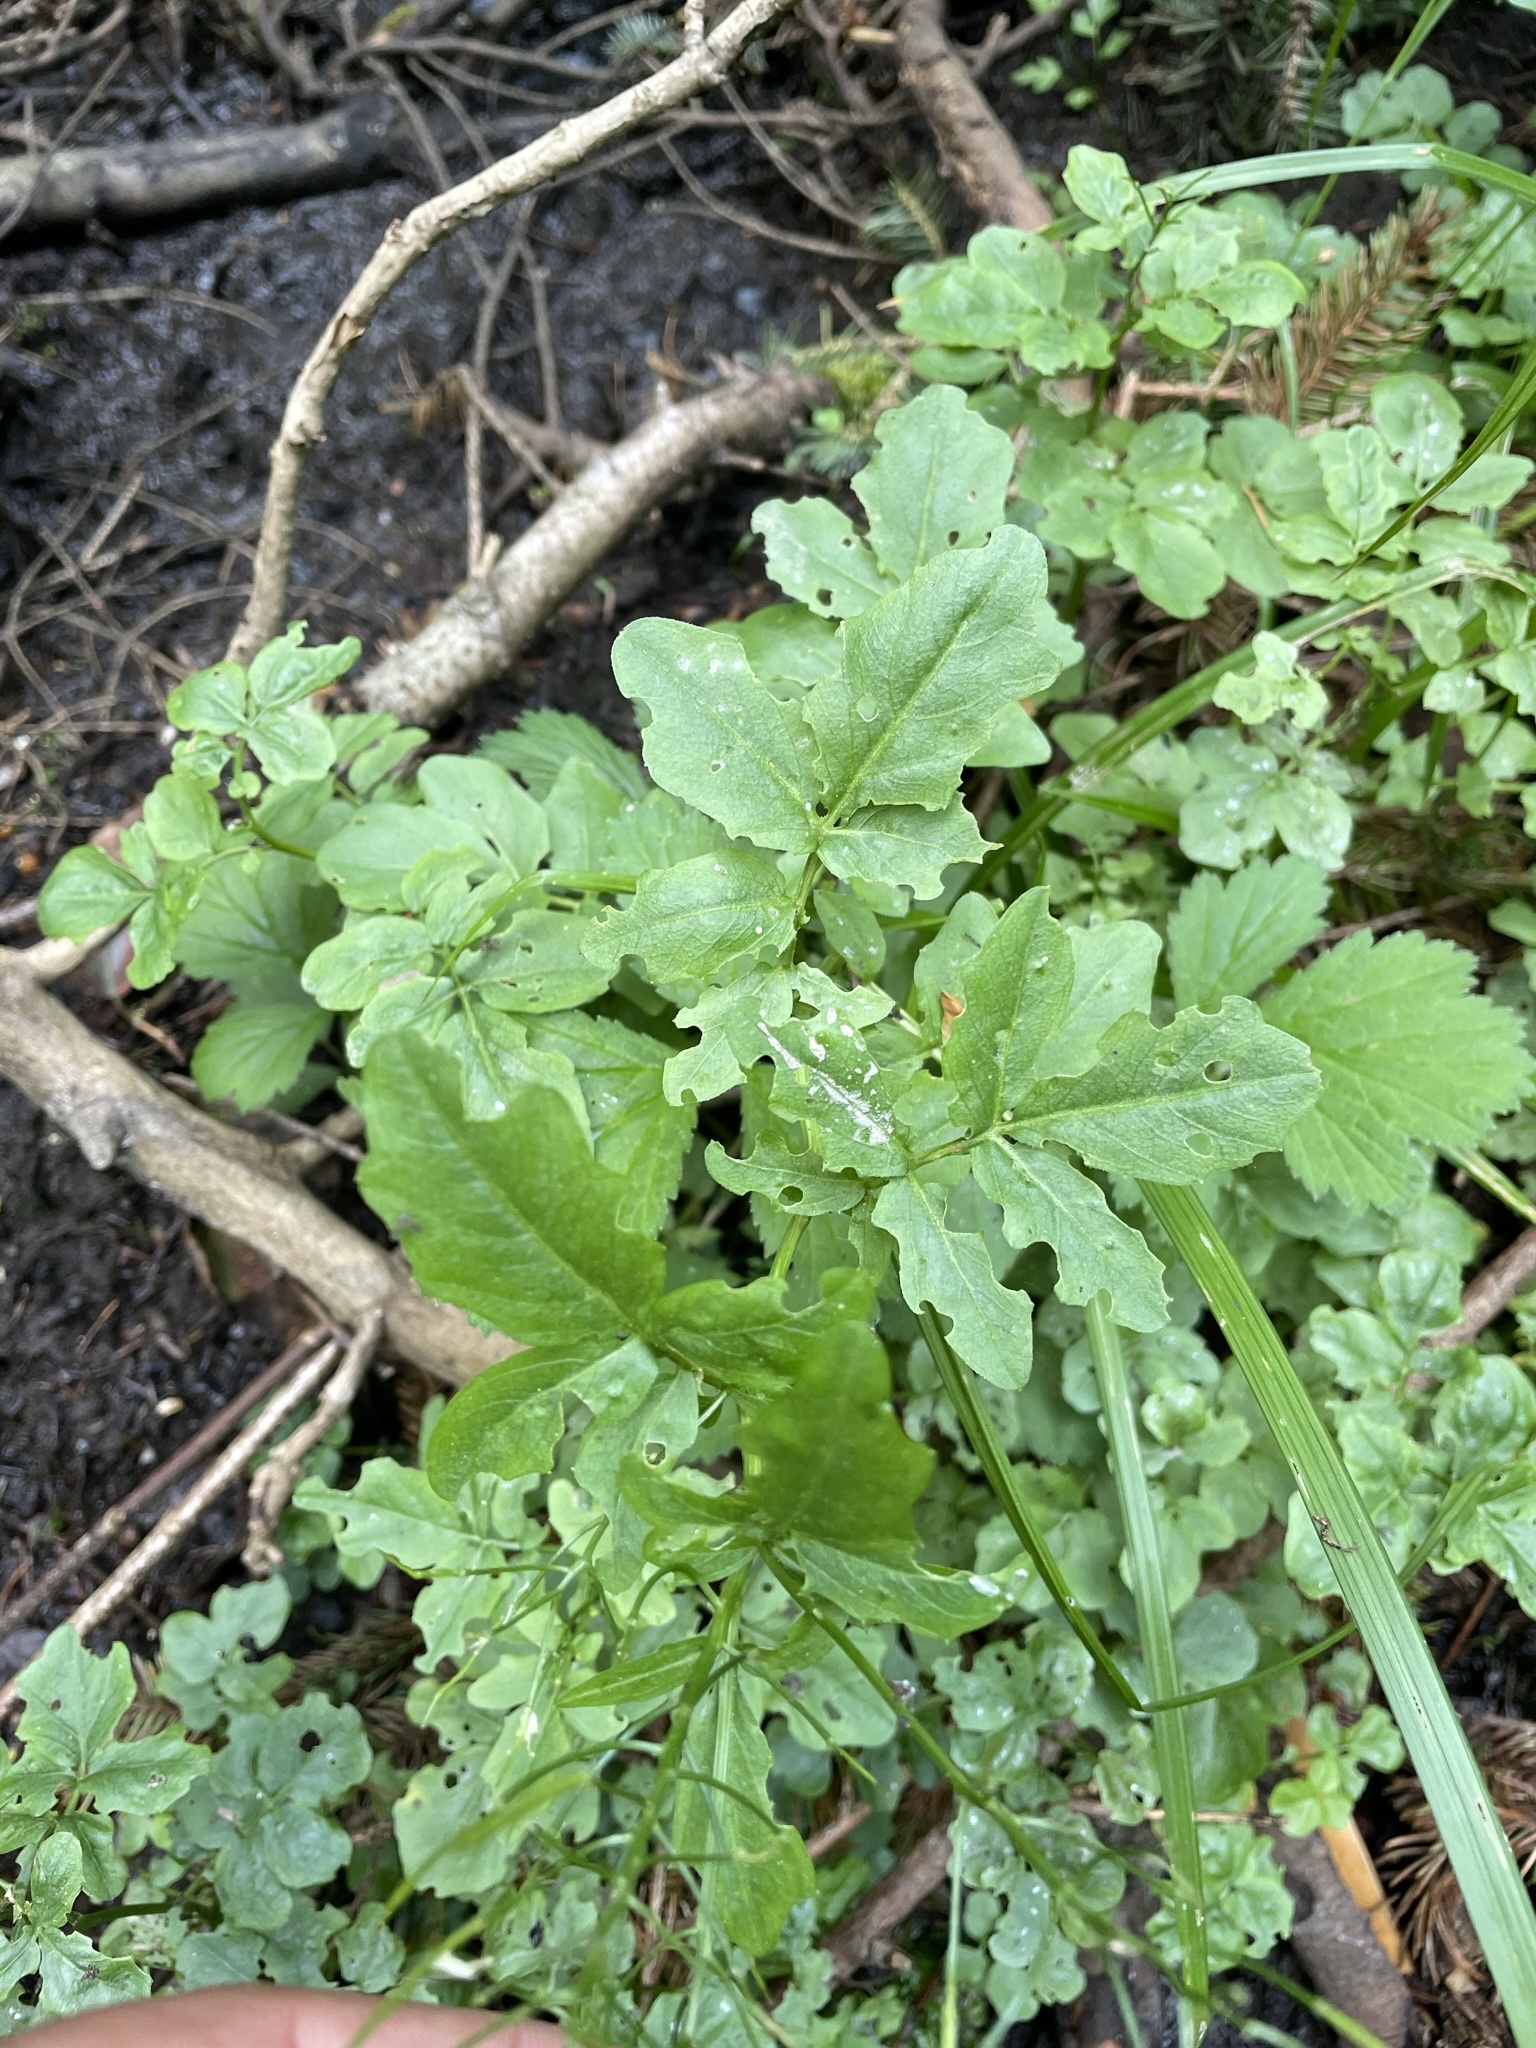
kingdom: Plantae
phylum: Tracheophyta
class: Magnoliopsida
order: Brassicales
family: Brassicaceae
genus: Cardamine
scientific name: Cardamine amara
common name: Large bitter-cress
